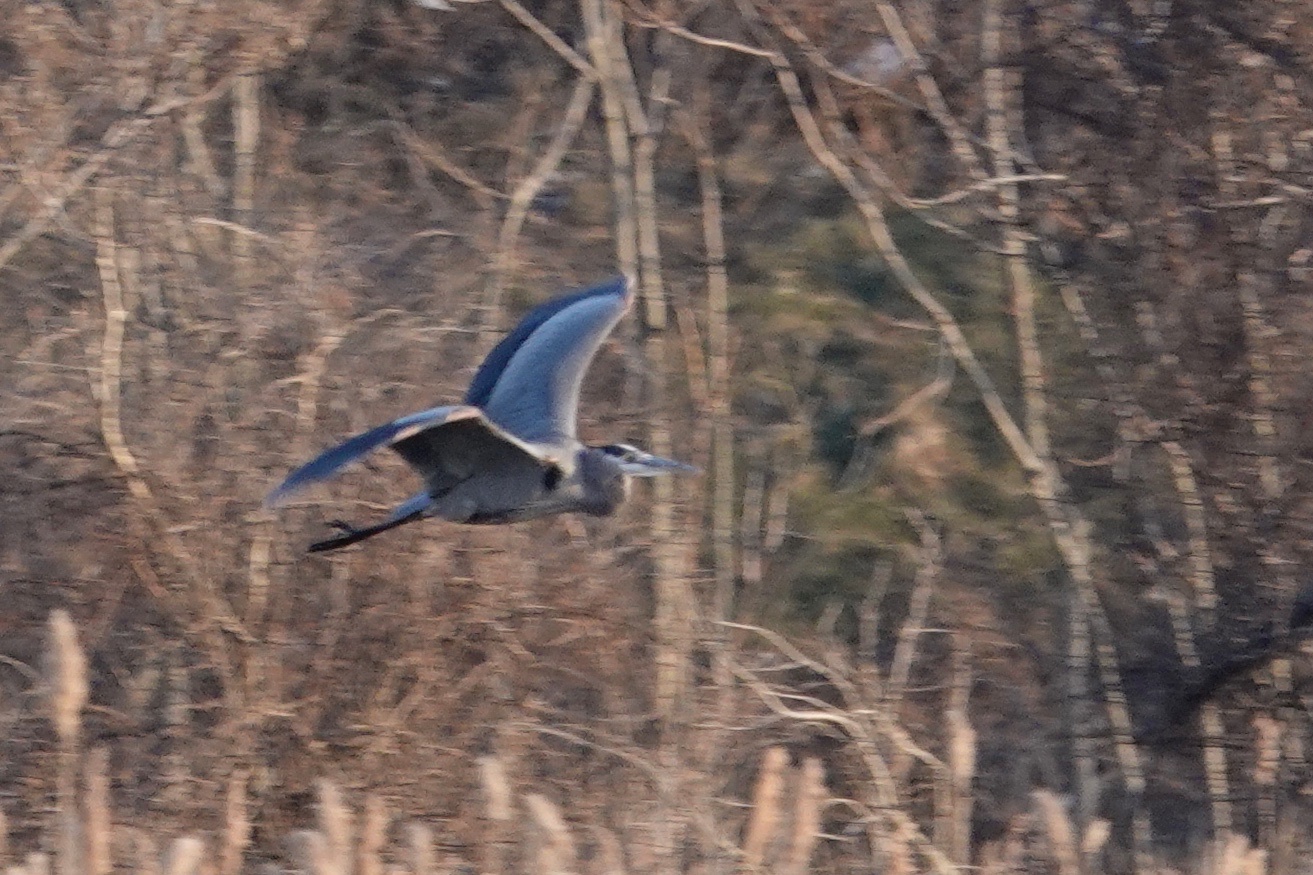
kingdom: Animalia
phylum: Chordata
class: Aves
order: Pelecaniformes
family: Ardeidae
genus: Ardea
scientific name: Ardea herodias
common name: Great blue heron
